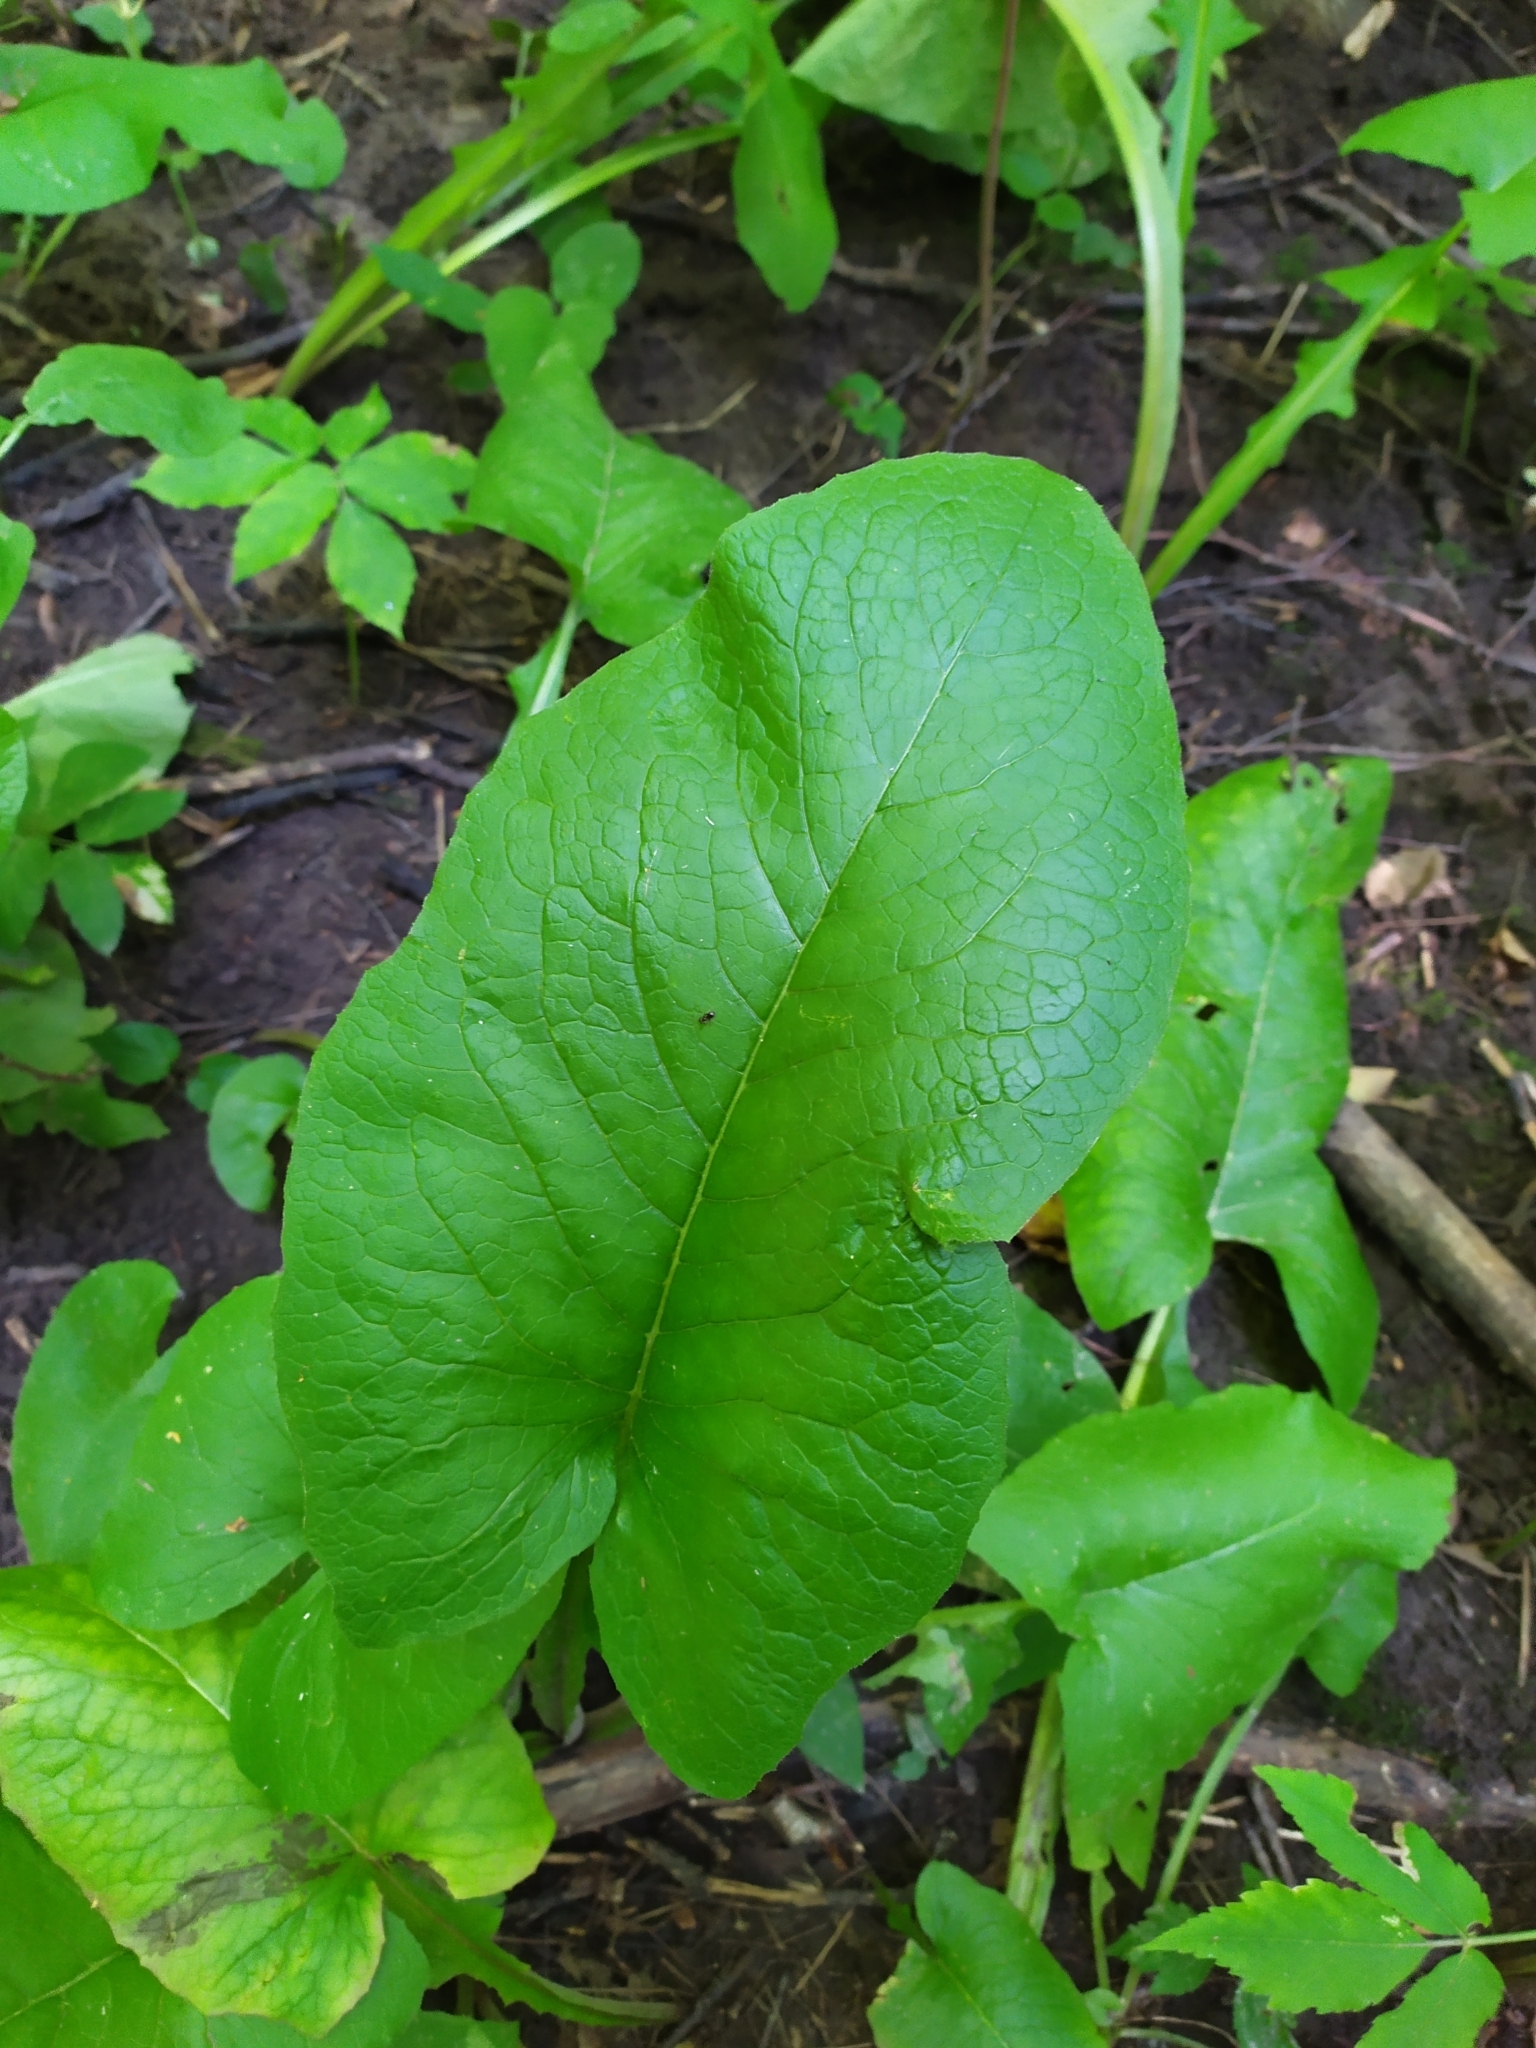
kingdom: Plantae
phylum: Tracheophyta
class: Magnoliopsida
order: Asterales
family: Asteraceae
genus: Lactuca
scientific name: Lactuca macrophylla
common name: Common blue-sow-thistle
